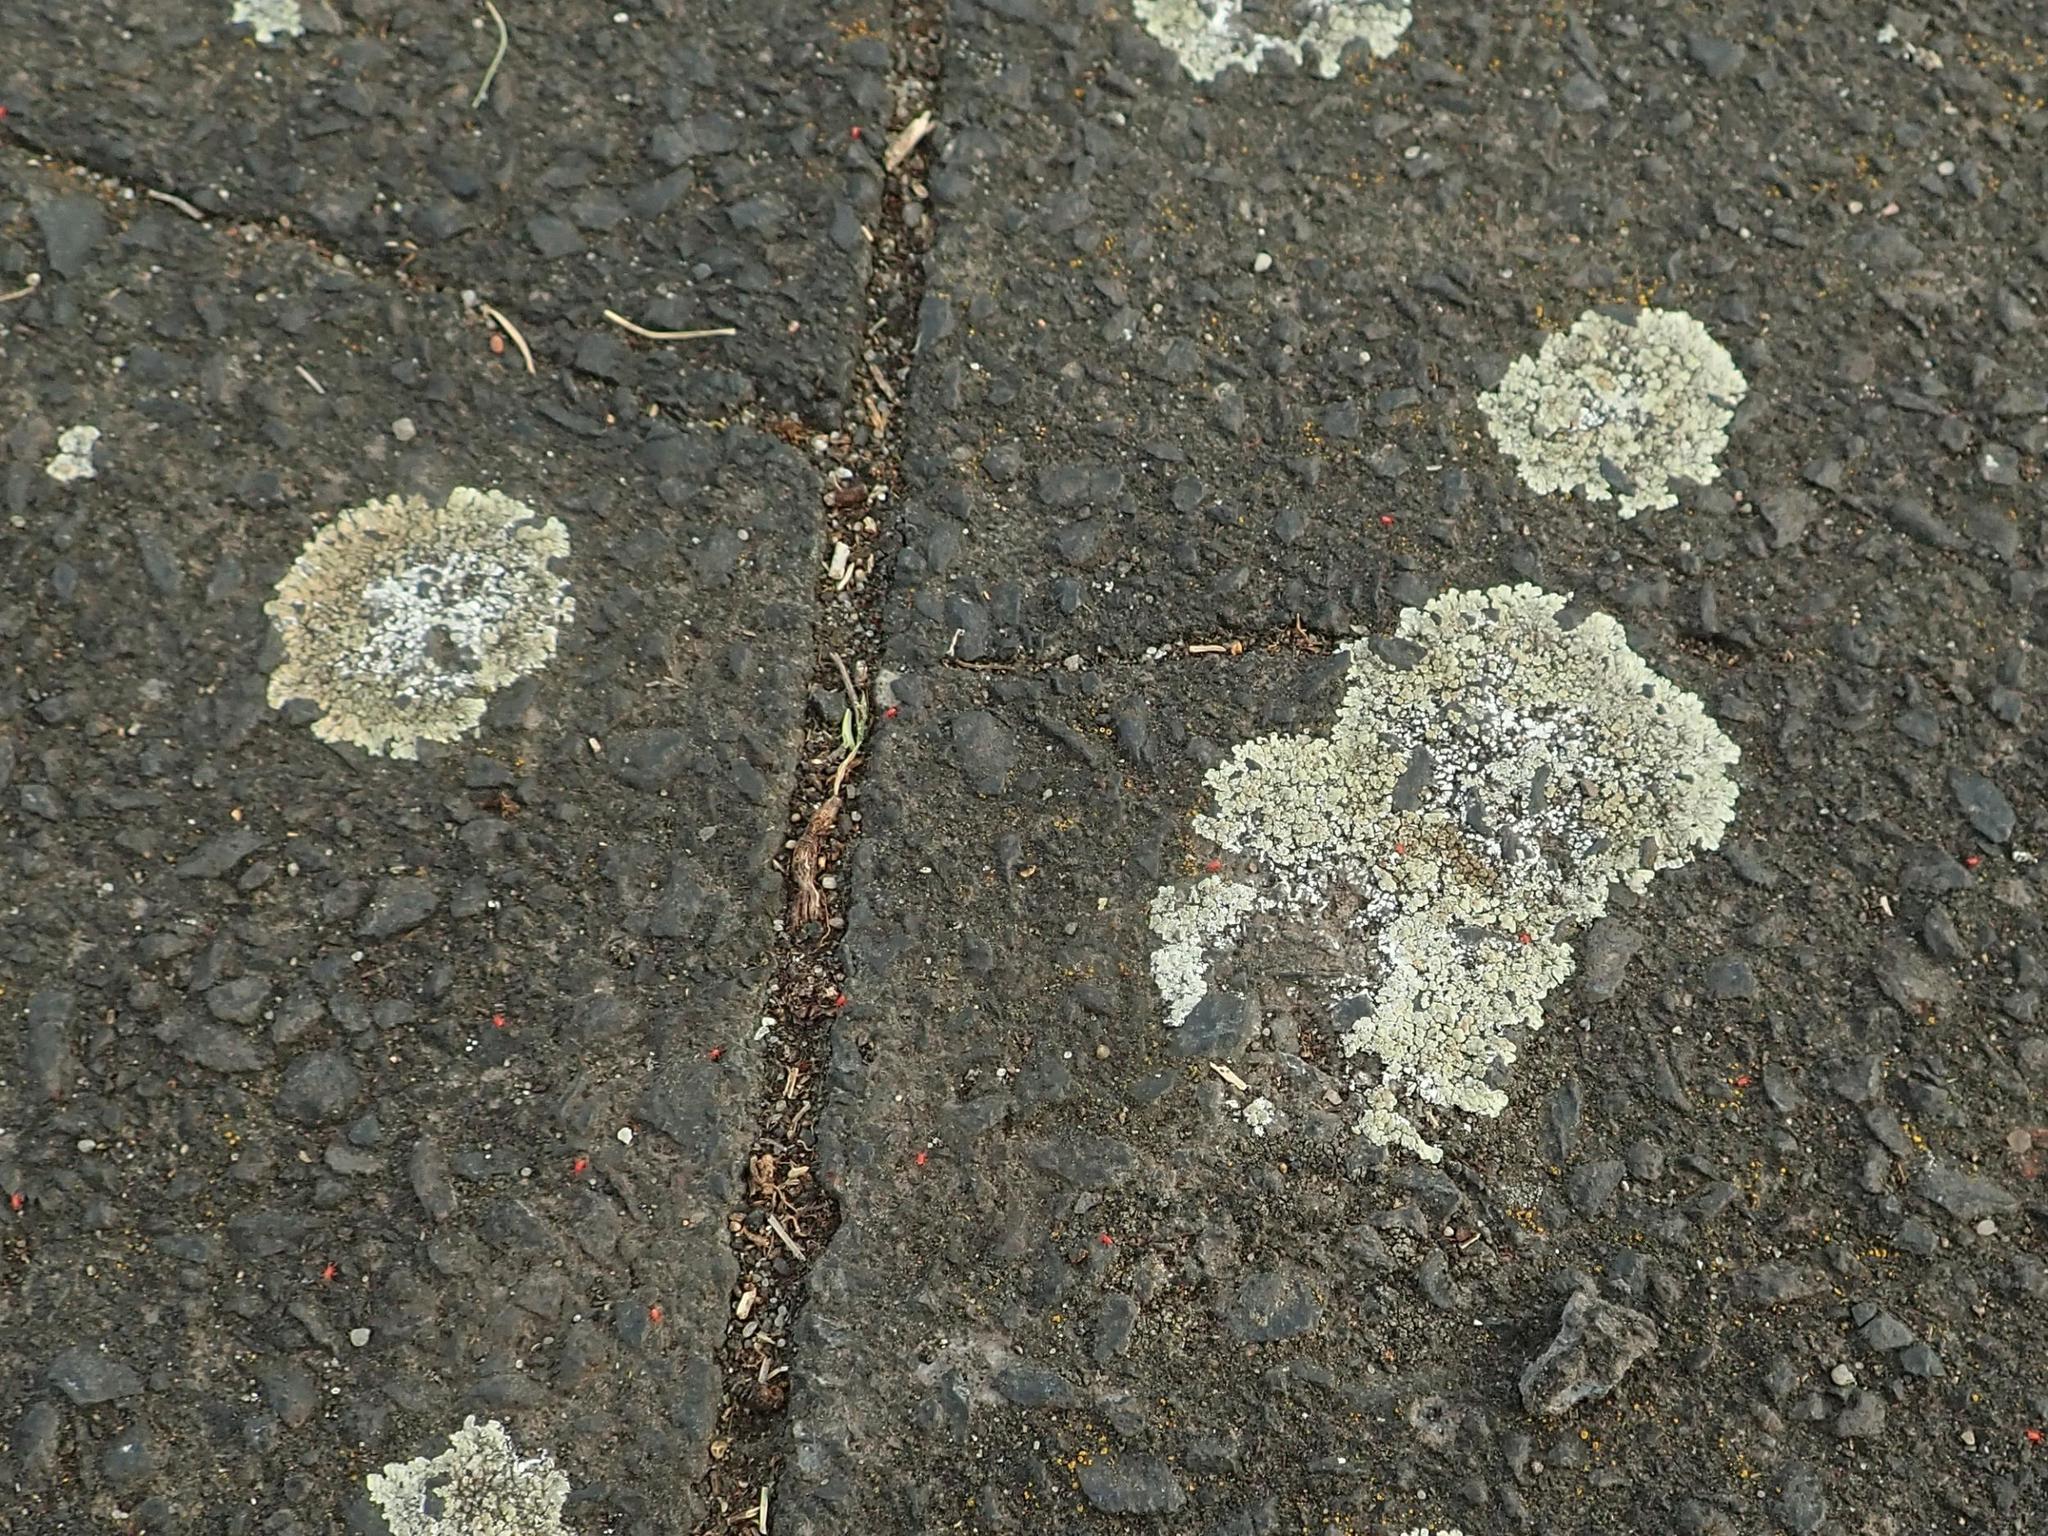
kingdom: Fungi
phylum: Ascomycota
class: Lecanoromycetes
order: Lecanorales
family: Lecanoraceae
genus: Protoparmeliopsis
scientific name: Protoparmeliopsis muralis
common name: Stonewall rim lichen
